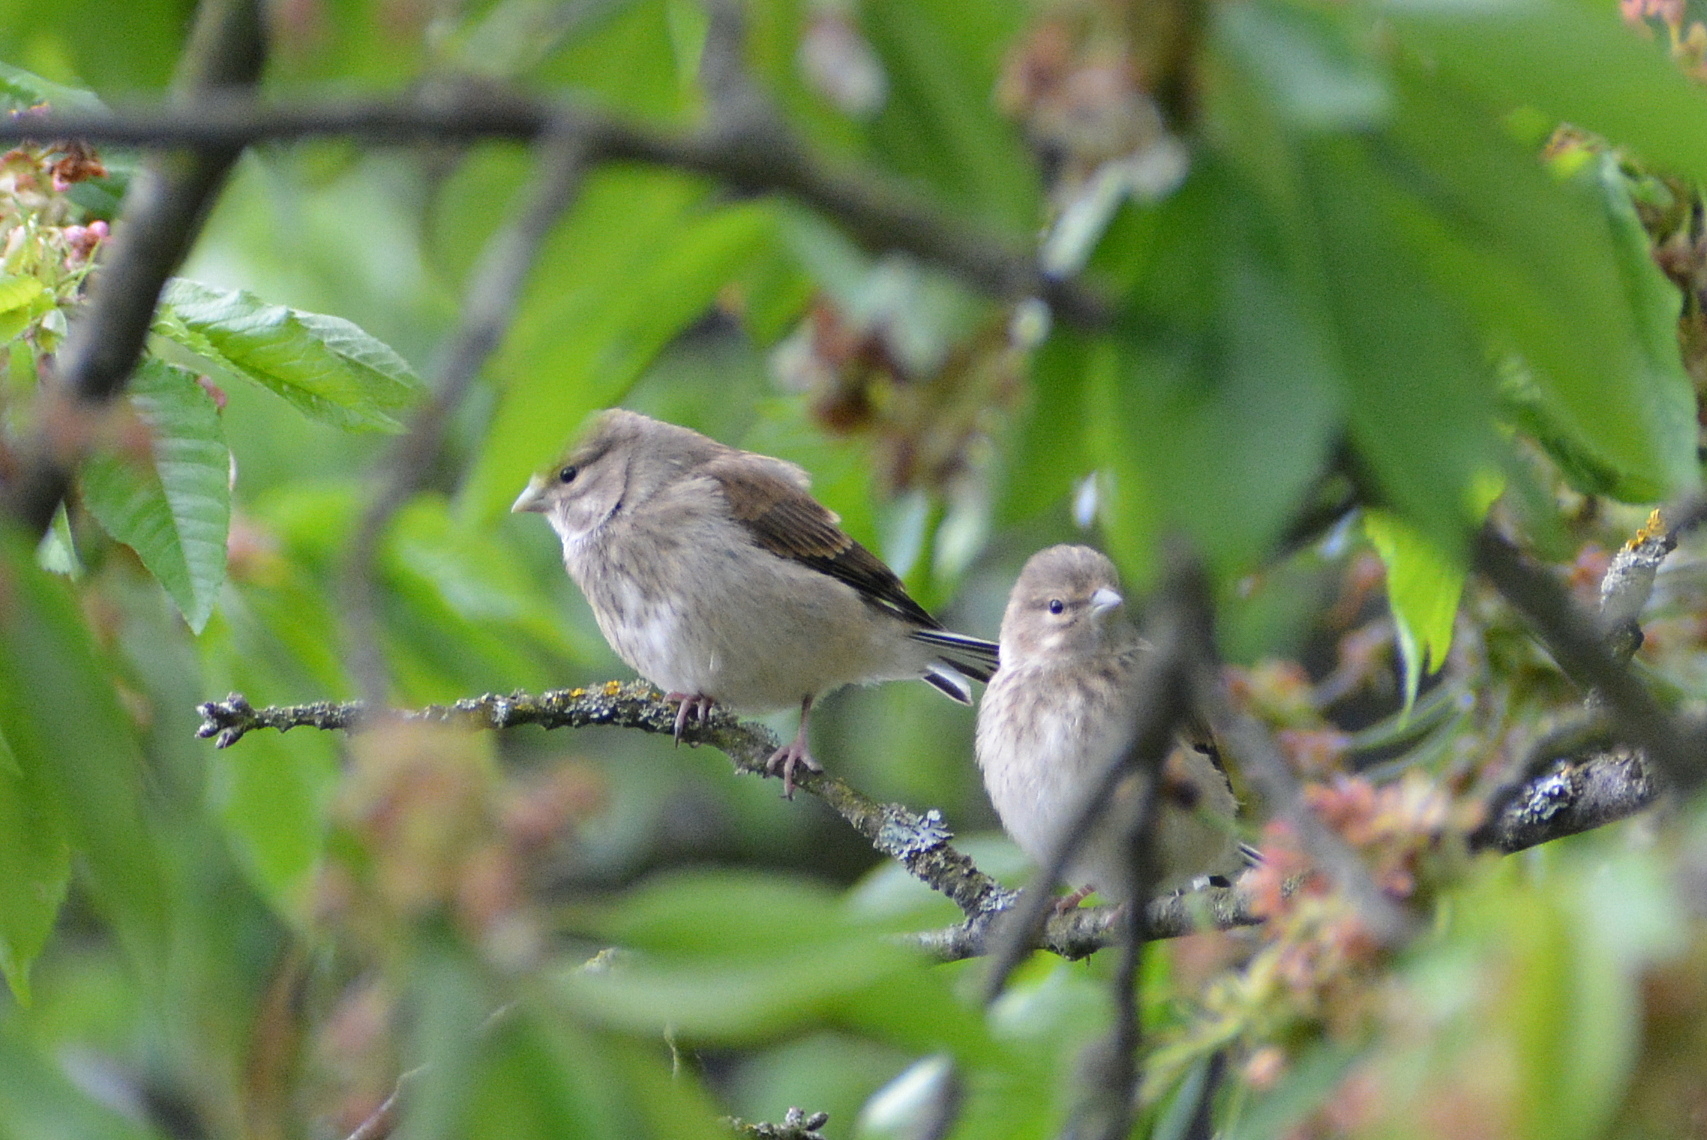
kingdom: Animalia
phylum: Chordata
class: Aves
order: Passeriformes
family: Fringillidae
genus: Linaria
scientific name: Linaria cannabina
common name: Common linnet
